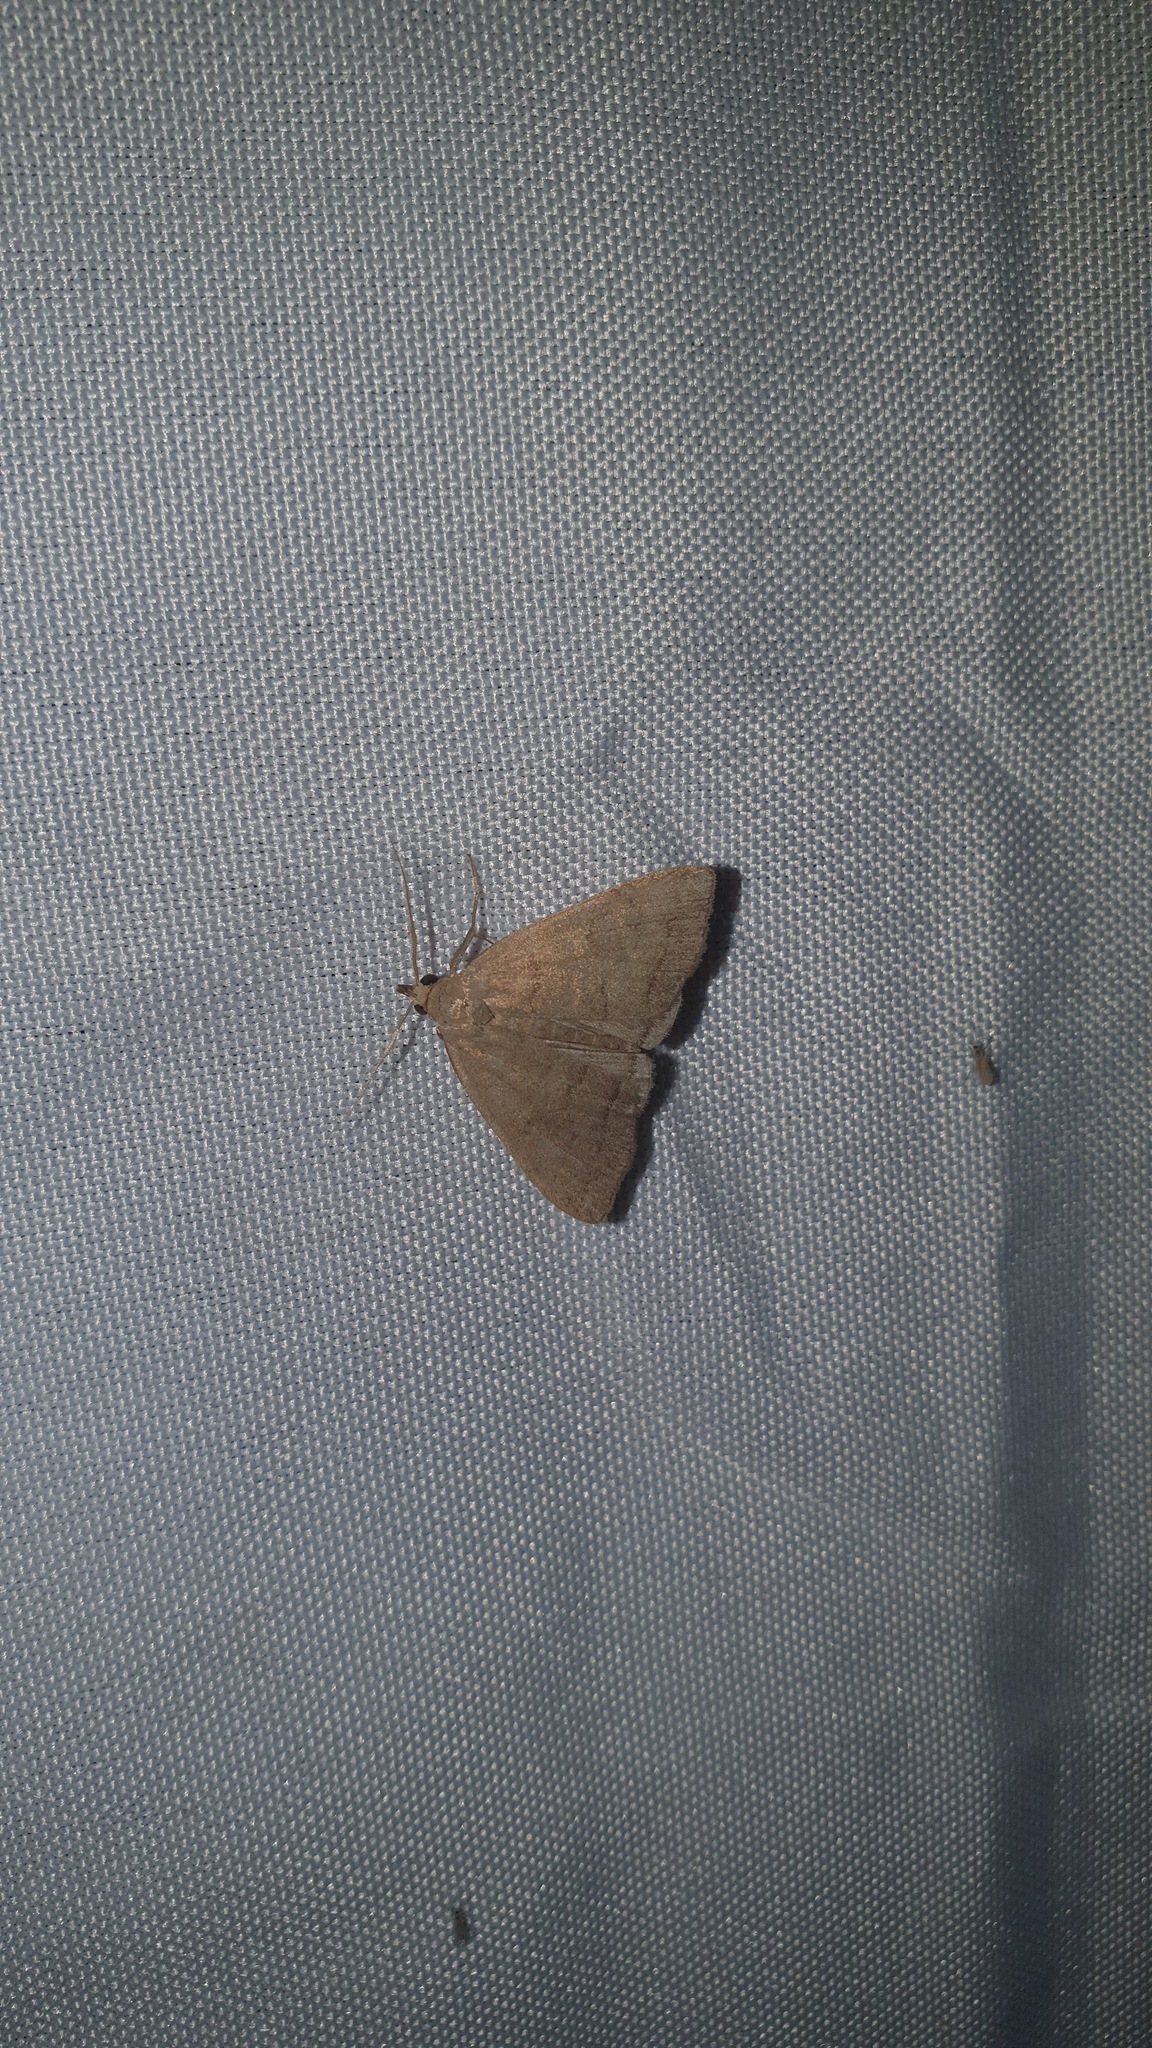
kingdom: Animalia
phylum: Arthropoda
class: Insecta
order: Lepidoptera
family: Erebidae
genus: Herminia
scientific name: Herminia tarsipennalis
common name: Fan-foot
